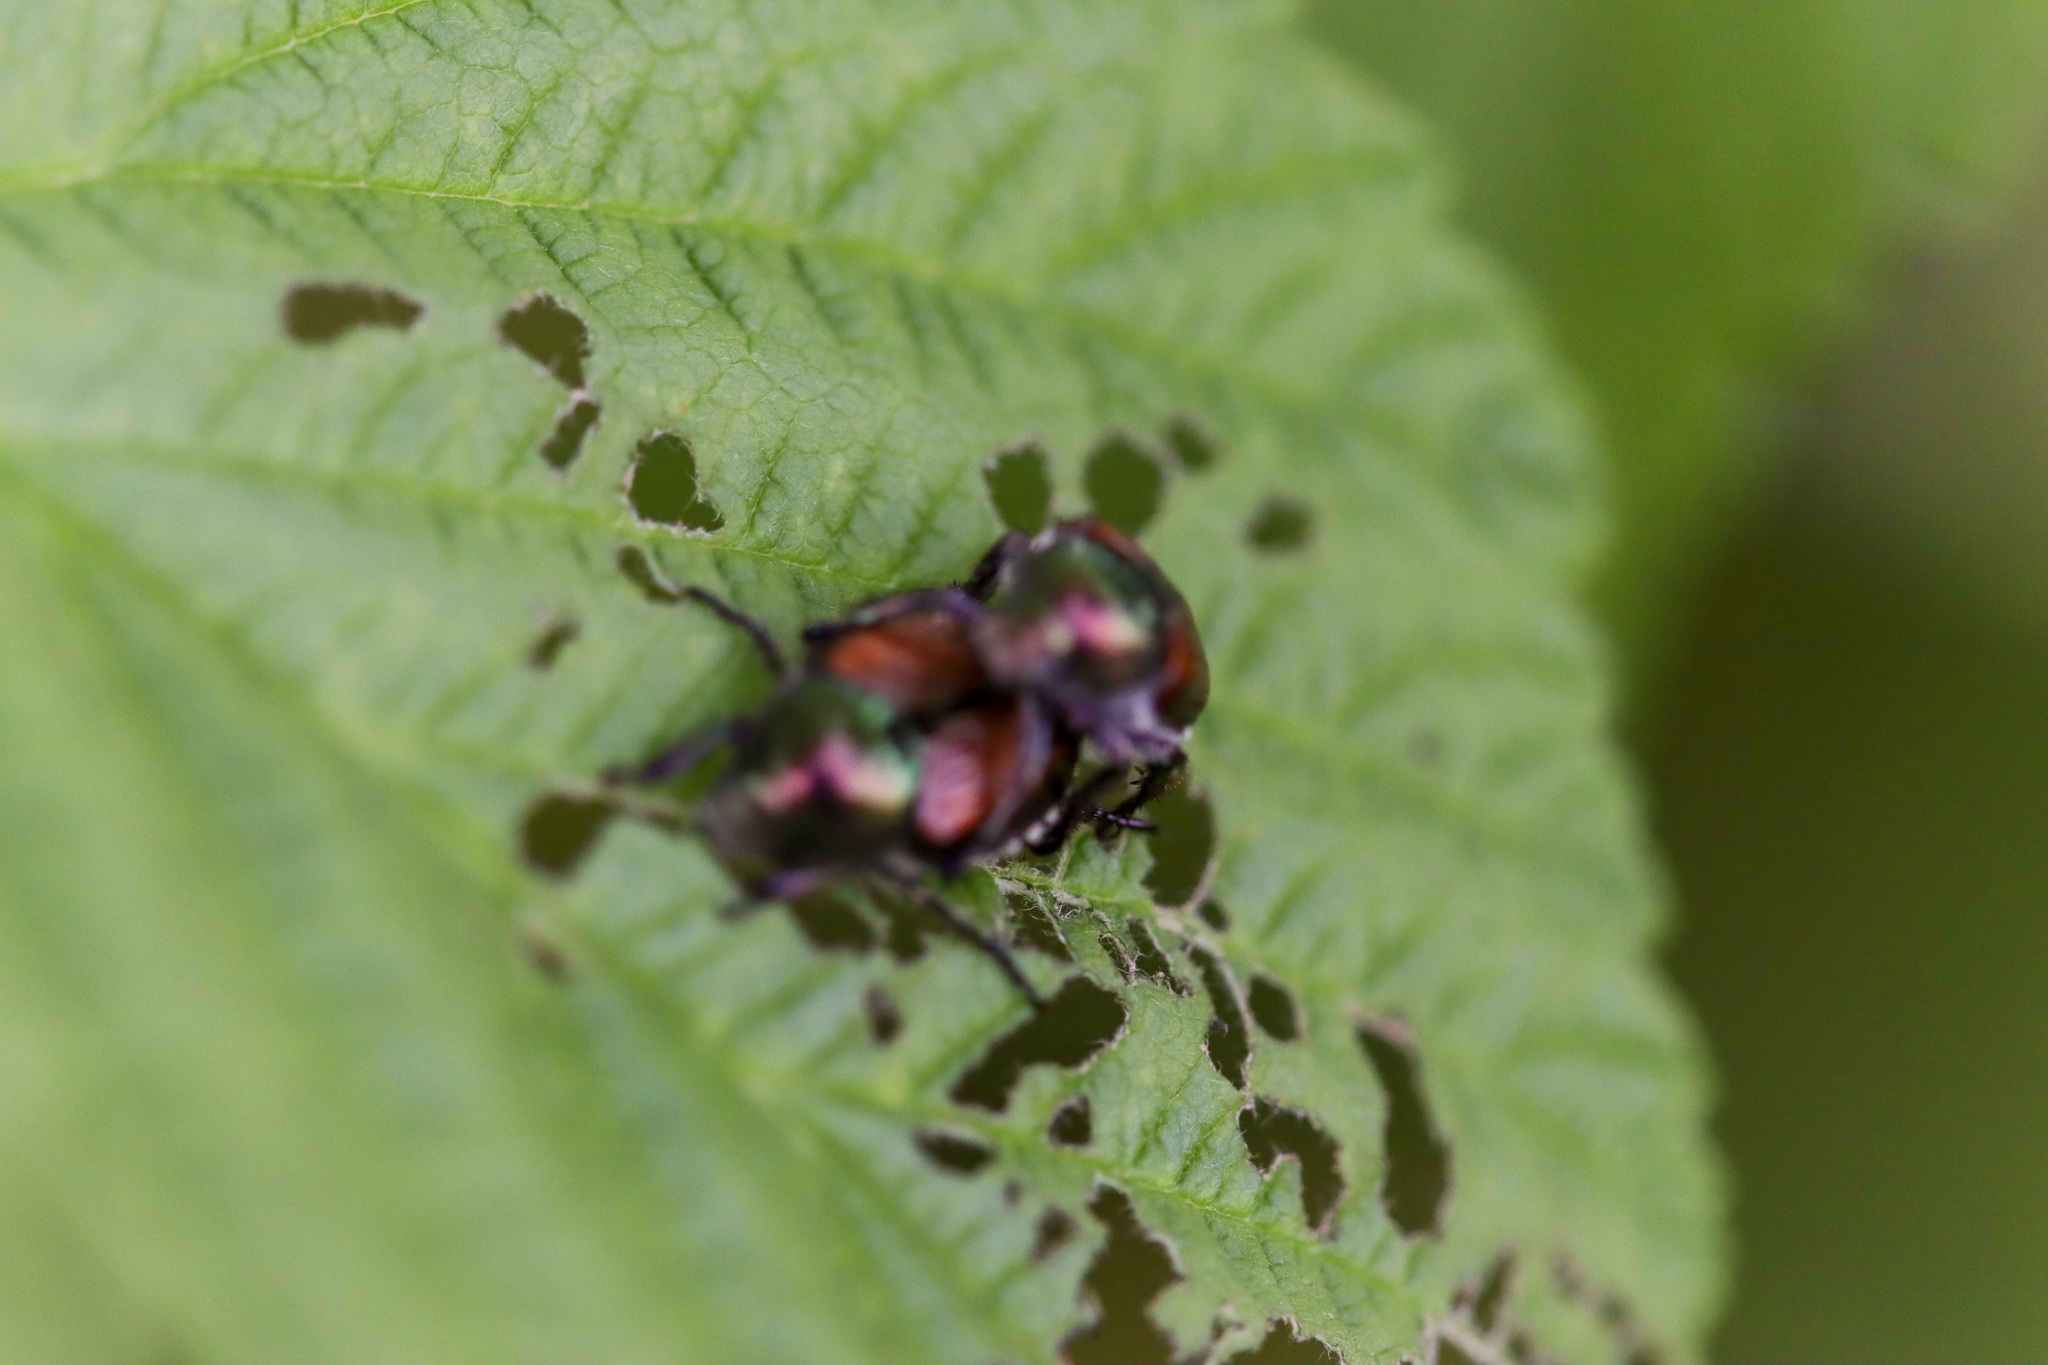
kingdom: Animalia
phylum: Arthropoda
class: Insecta
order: Coleoptera
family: Scarabaeidae
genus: Popillia
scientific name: Popillia japonica
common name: Japanese beetle
